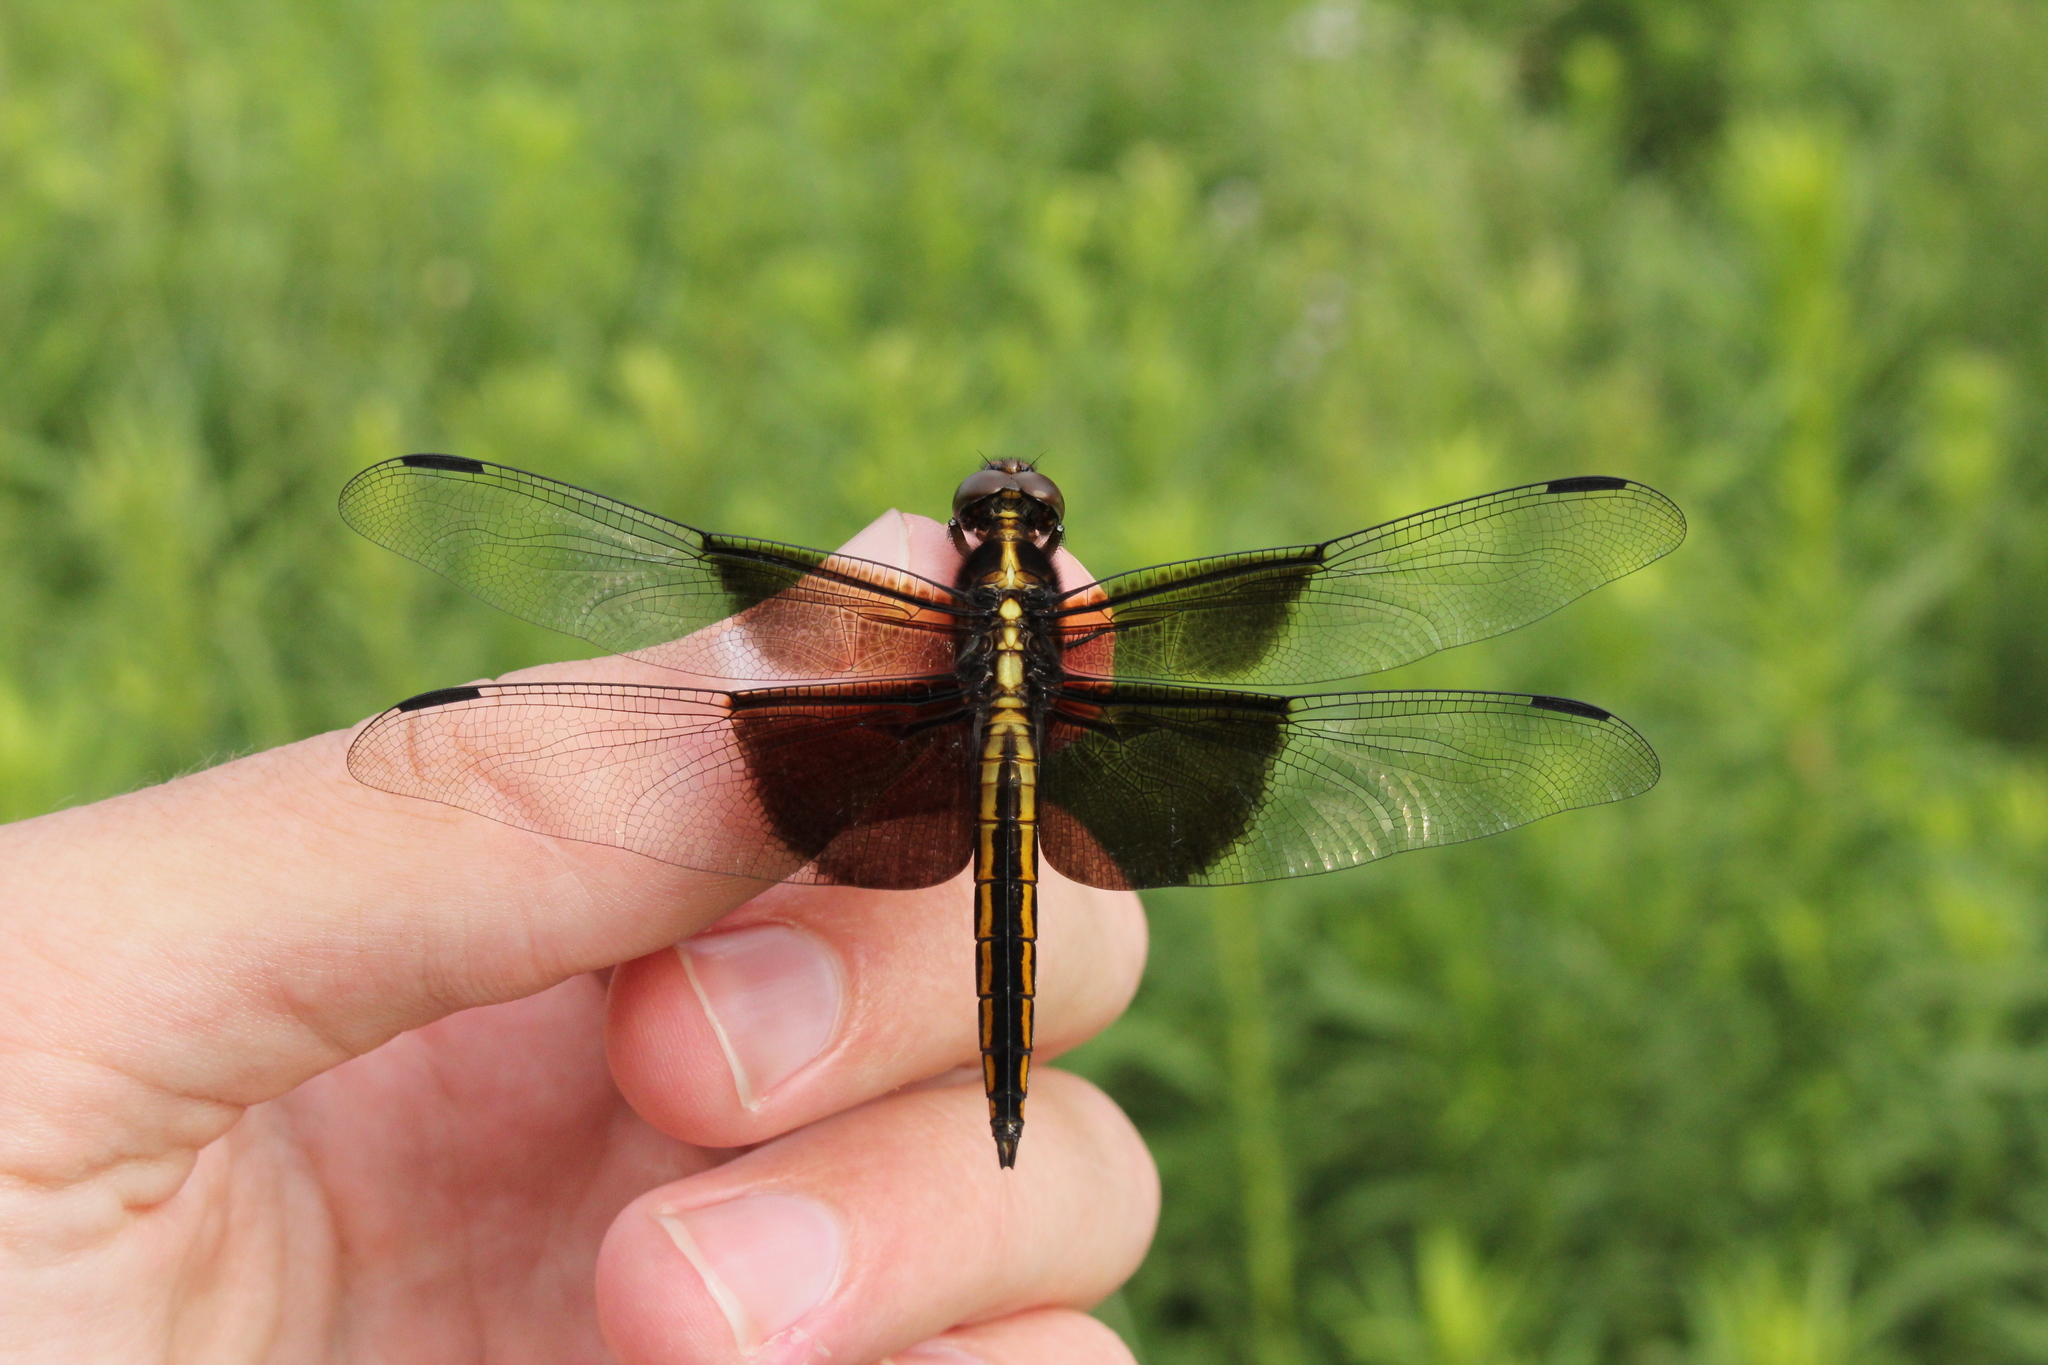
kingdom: Animalia
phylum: Arthropoda
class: Insecta
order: Odonata
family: Libellulidae
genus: Libellula
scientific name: Libellula luctuosa
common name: Widow skimmer
